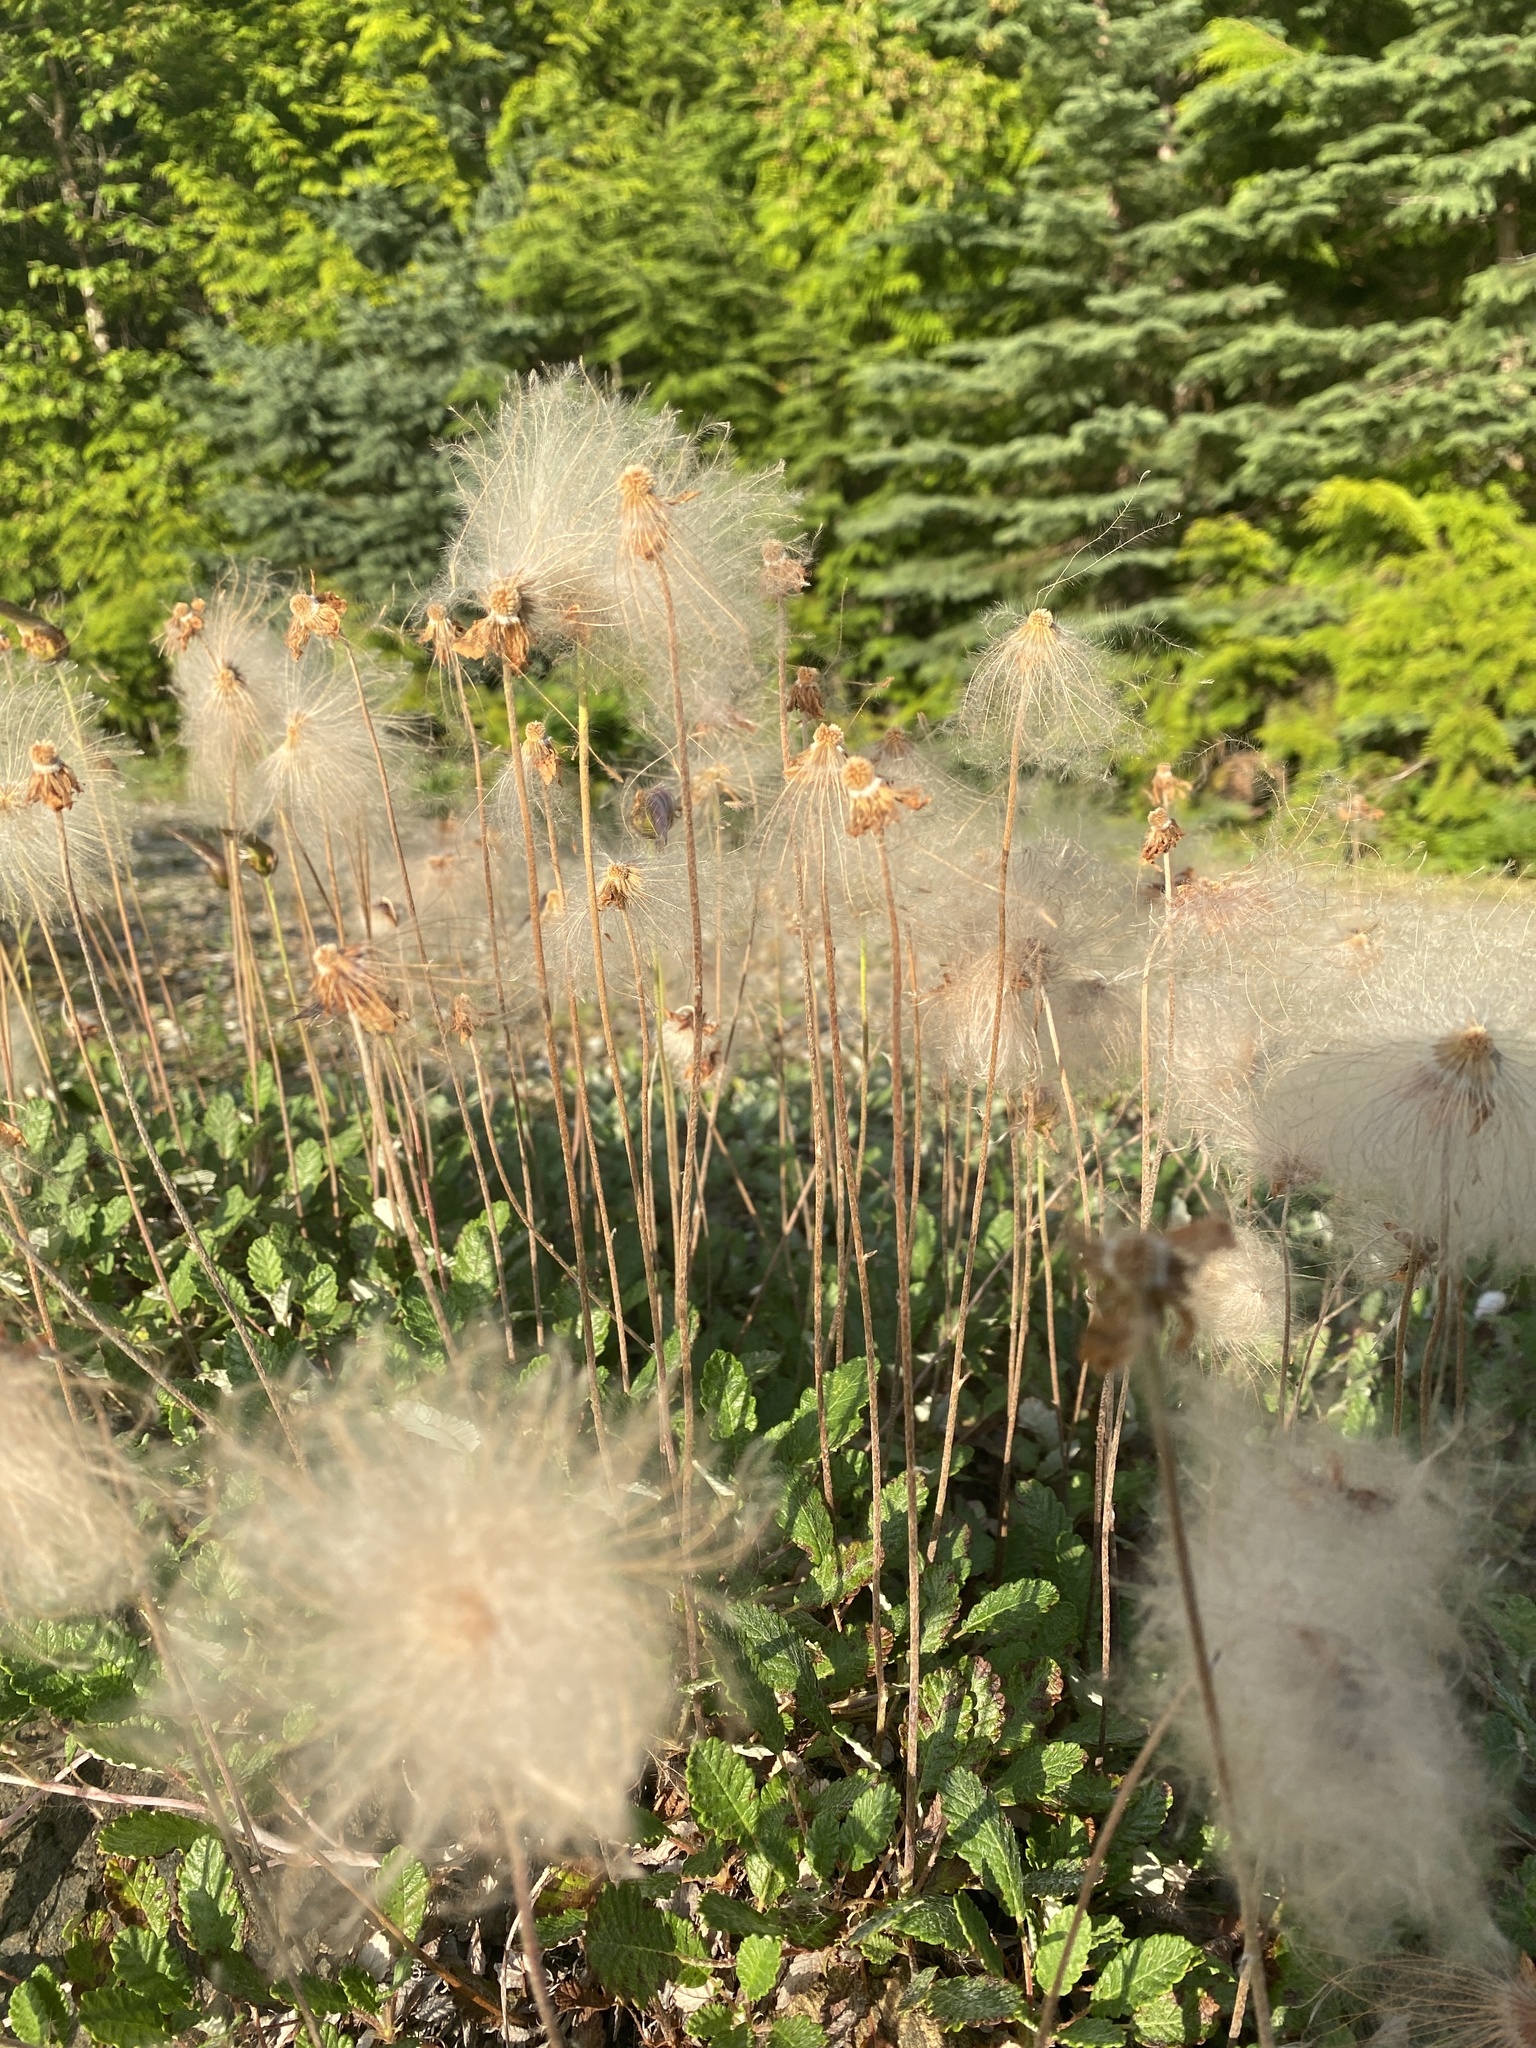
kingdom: Plantae
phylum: Tracheophyta
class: Magnoliopsida
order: Rosales
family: Rosaceae
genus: Dryas
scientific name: Dryas drummondii
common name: Drummond's dryad
